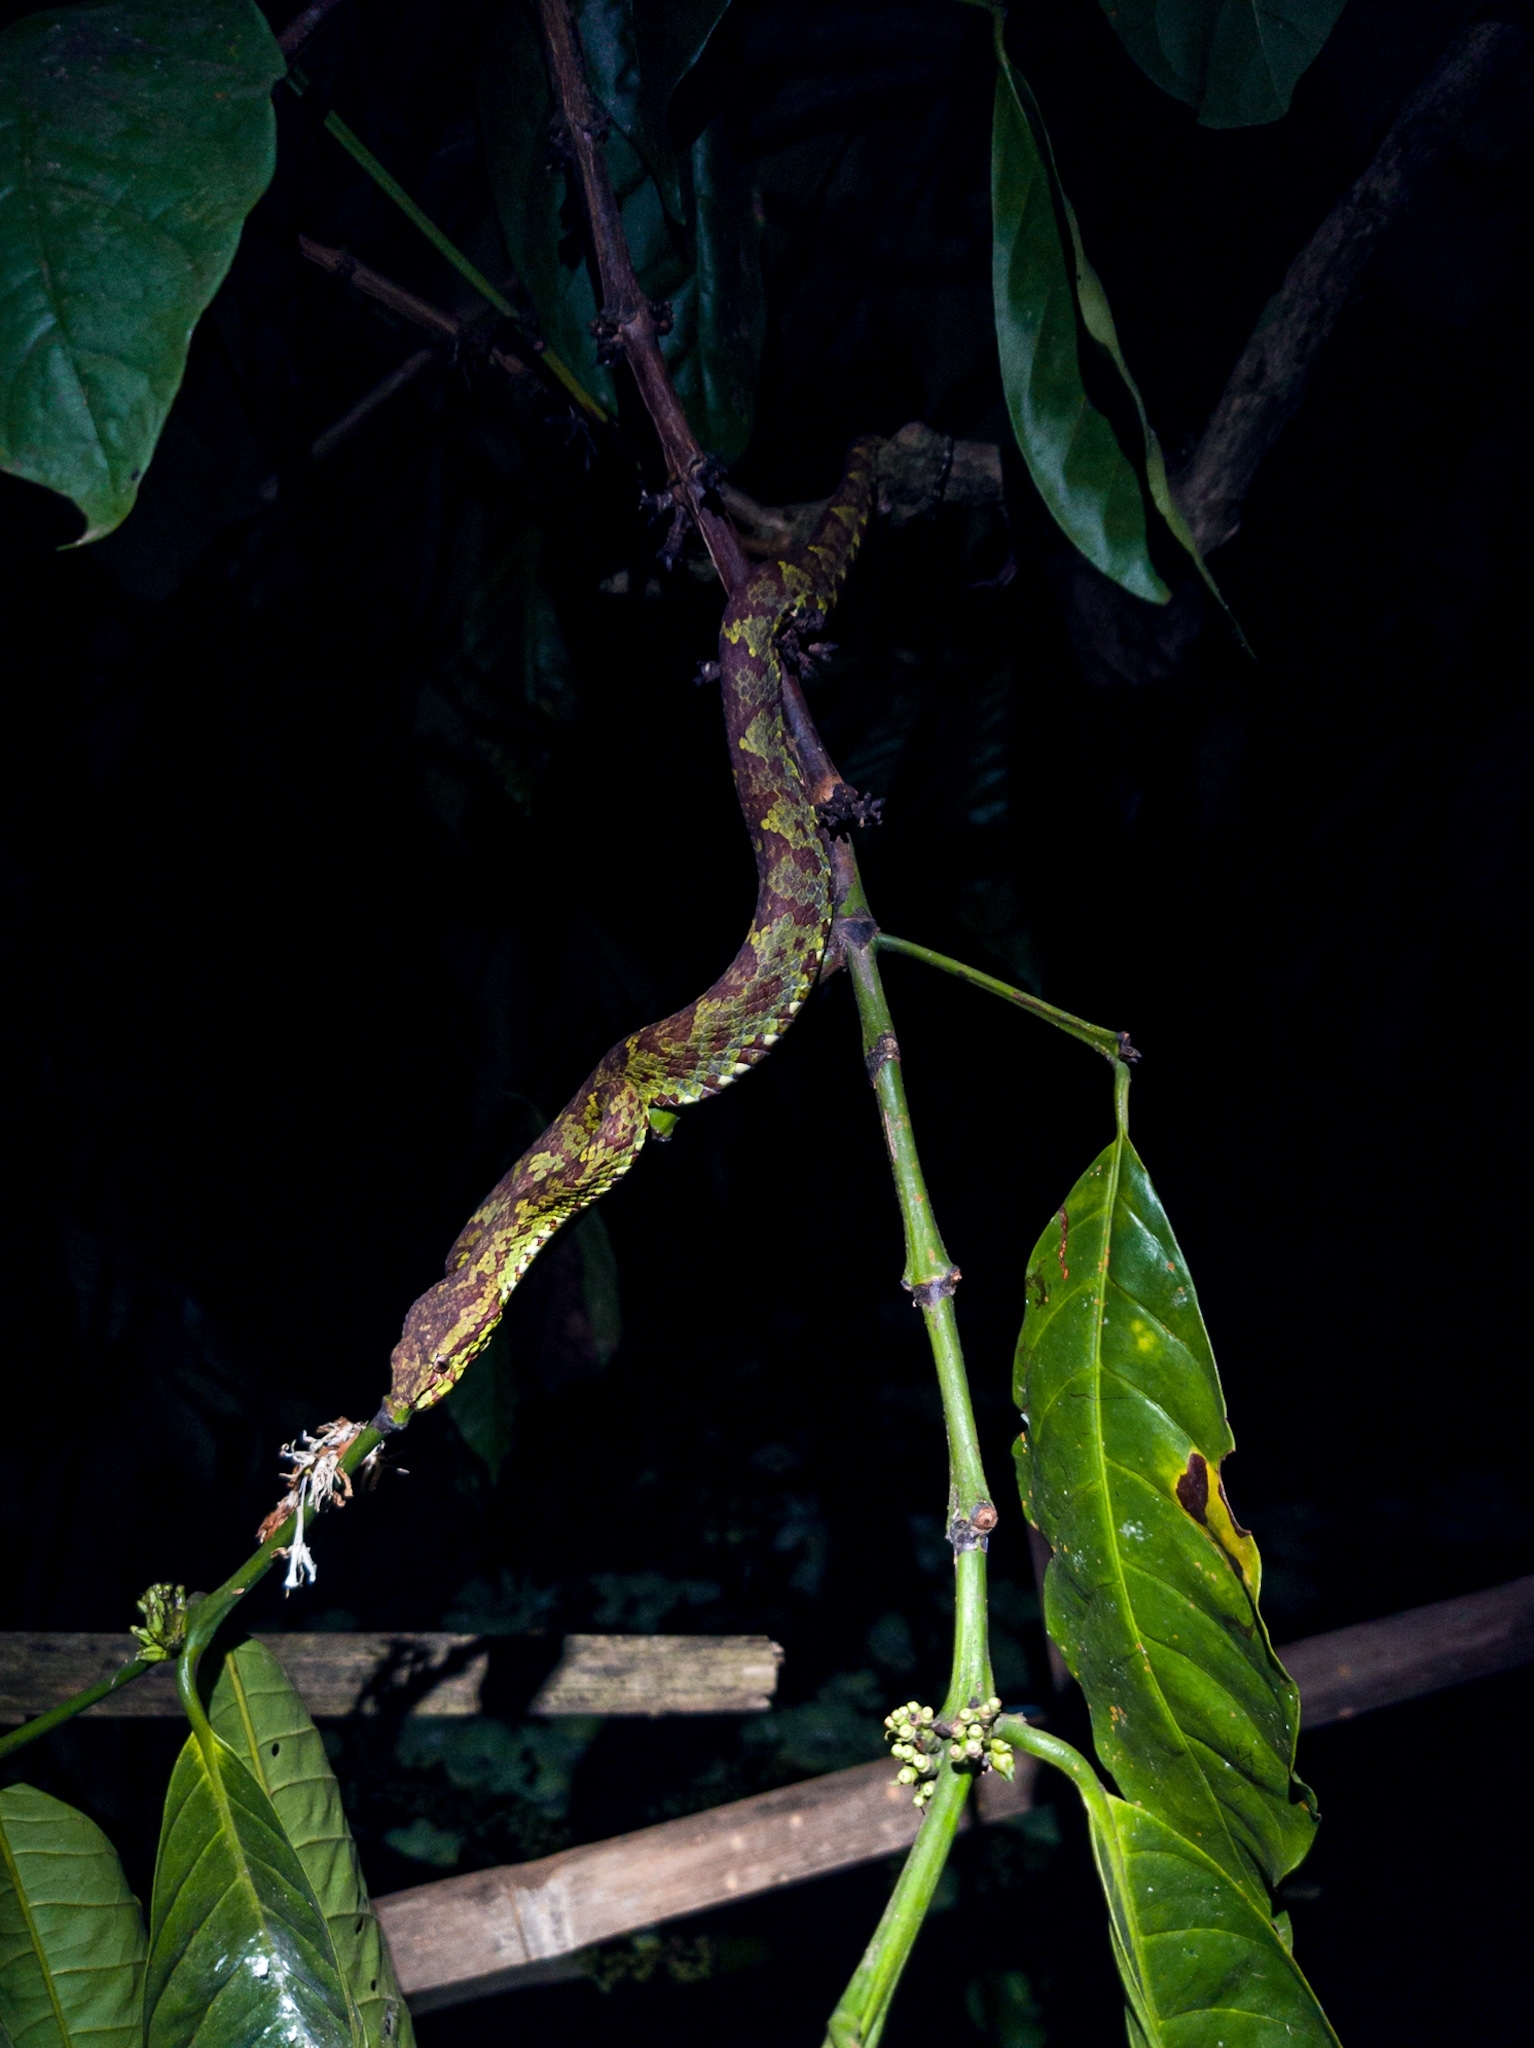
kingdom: Animalia
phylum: Chordata
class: Squamata
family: Viperidae
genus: Craspedocephalus
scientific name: Craspedocephalus malabaricus
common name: Malabarian pit viper
